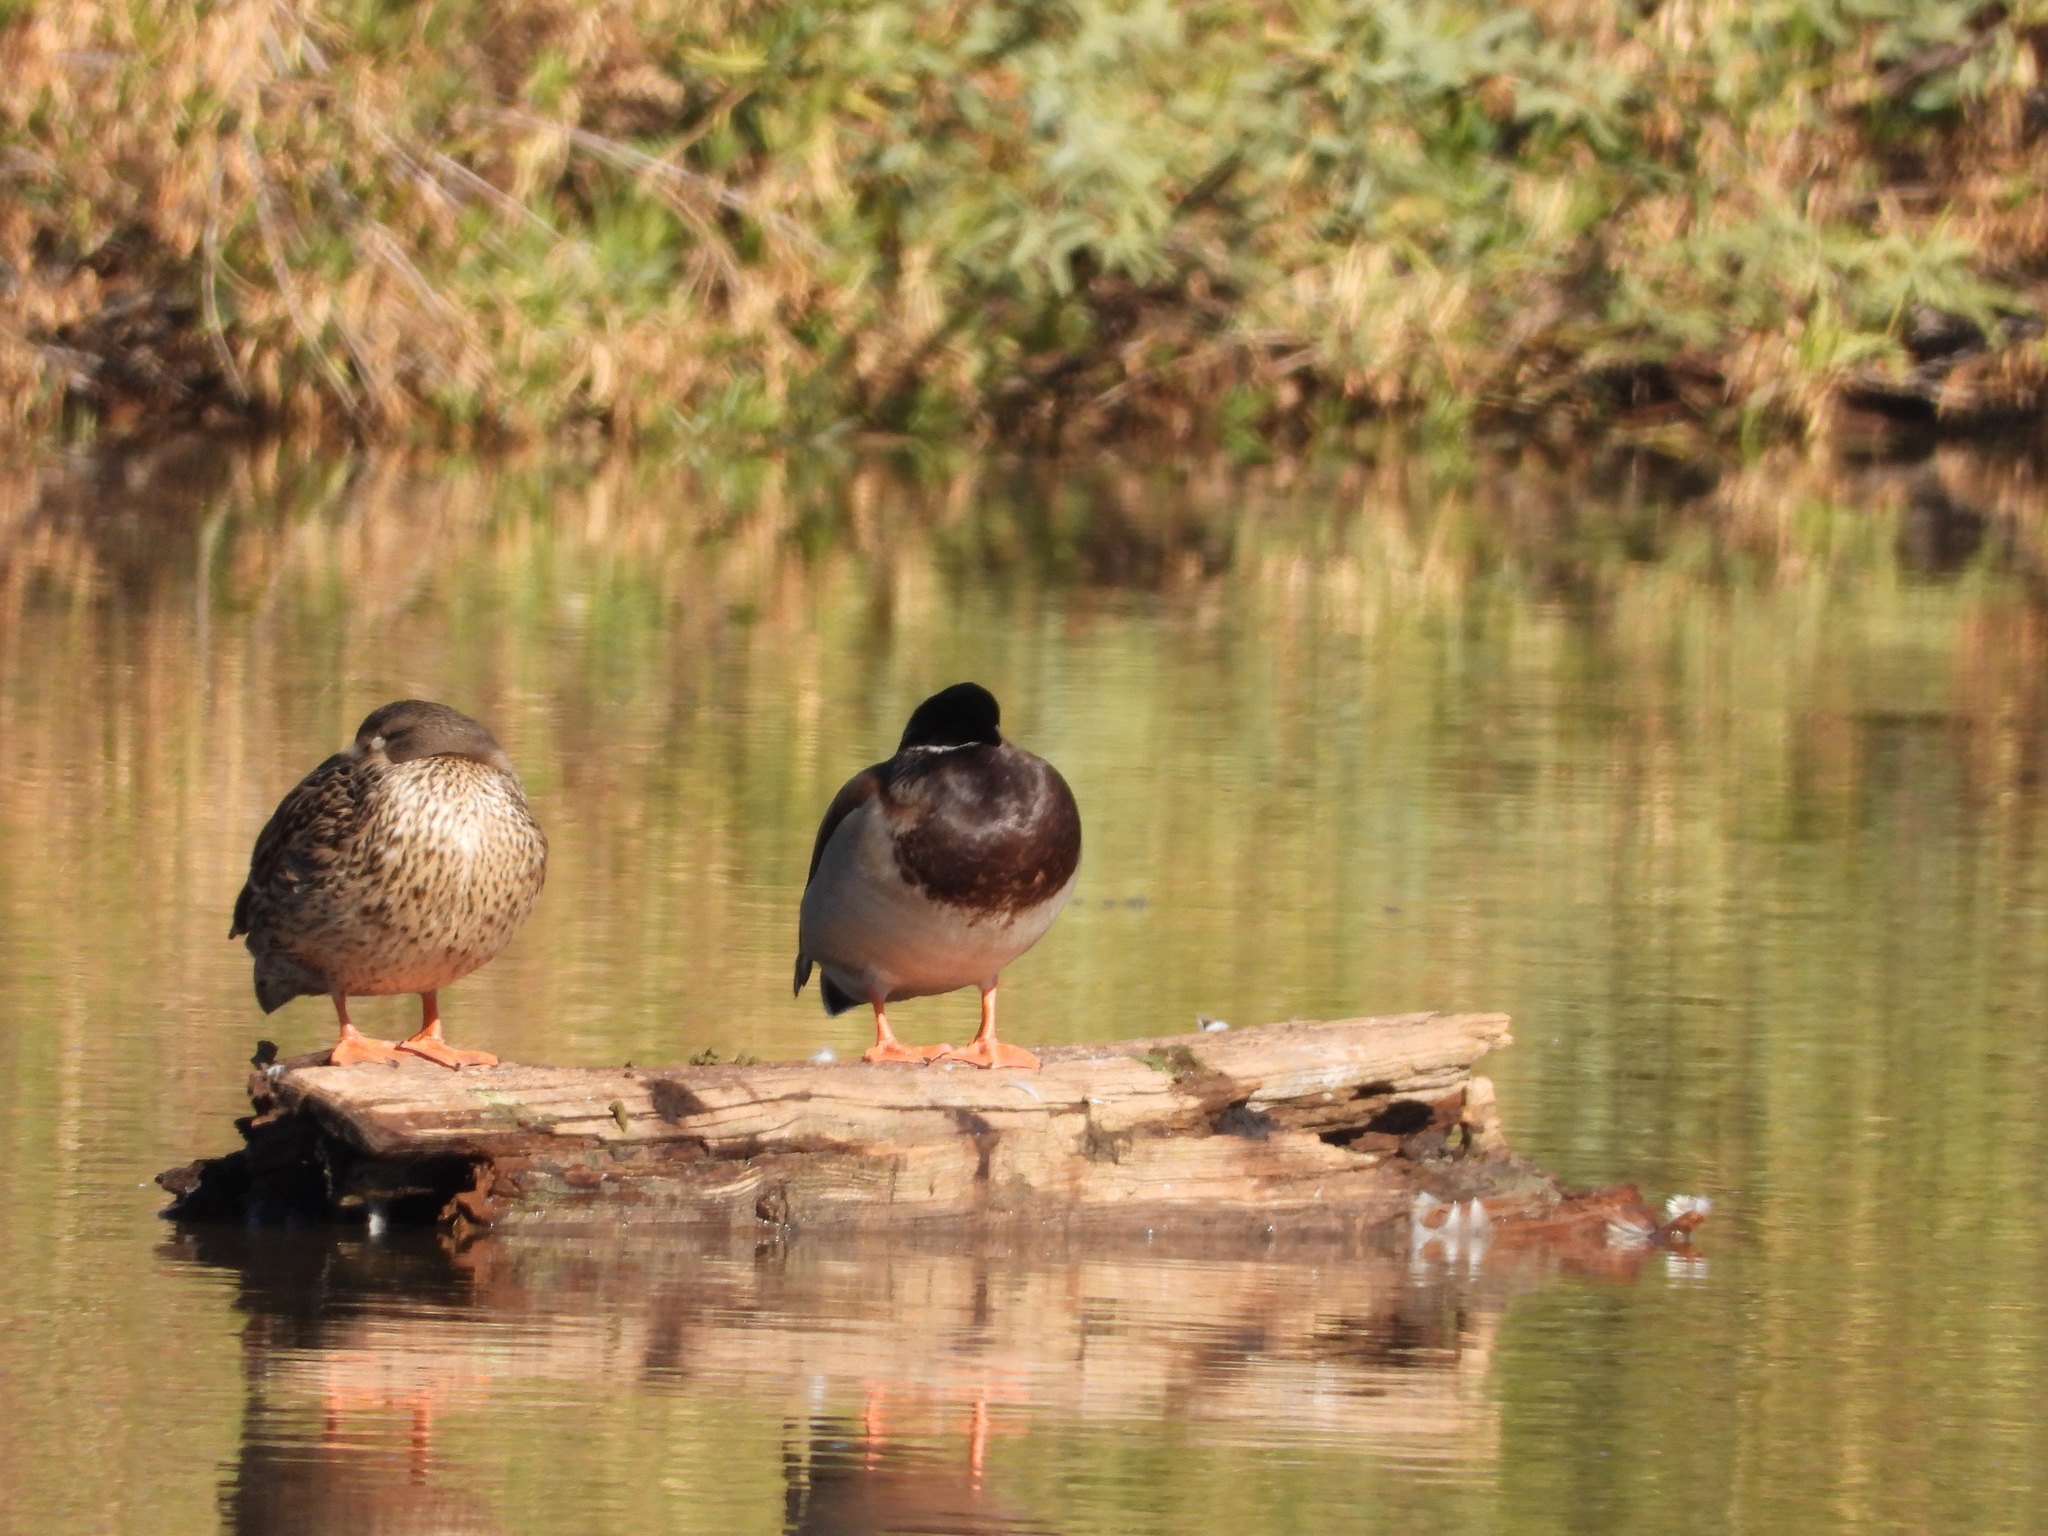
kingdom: Animalia
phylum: Chordata
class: Aves
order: Anseriformes
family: Anatidae
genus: Anas
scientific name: Anas platyrhynchos
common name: Mallard
